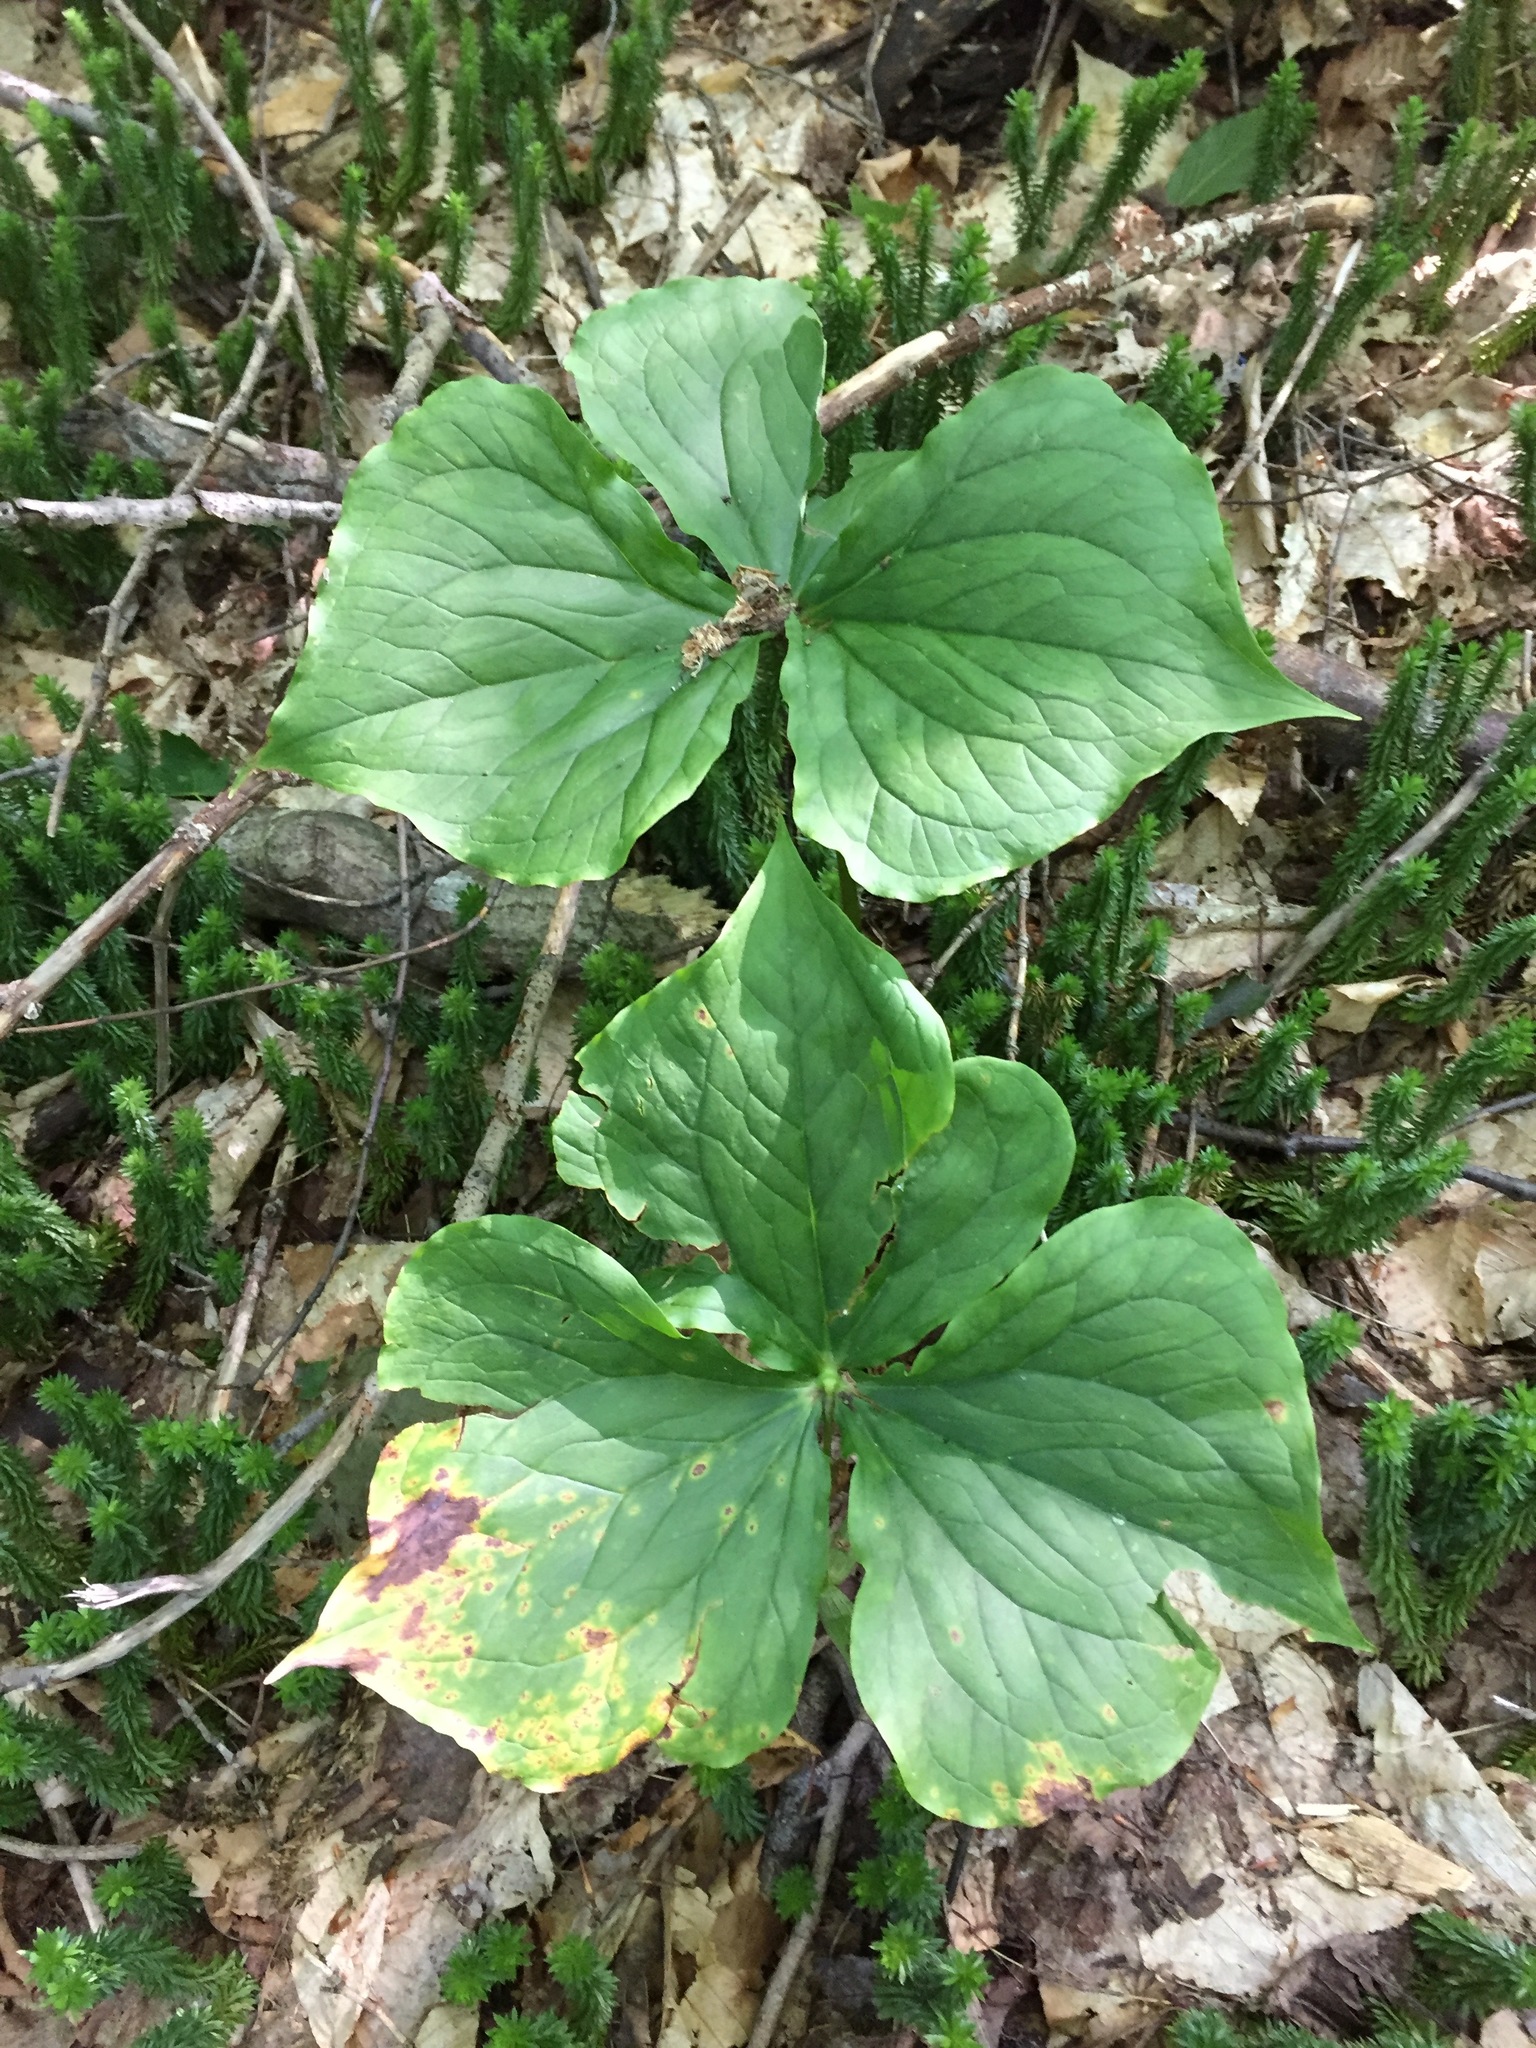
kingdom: Plantae
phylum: Tracheophyta
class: Liliopsida
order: Liliales
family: Melanthiaceae
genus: Trillium
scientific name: Trillium erectum
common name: Purple trillium
